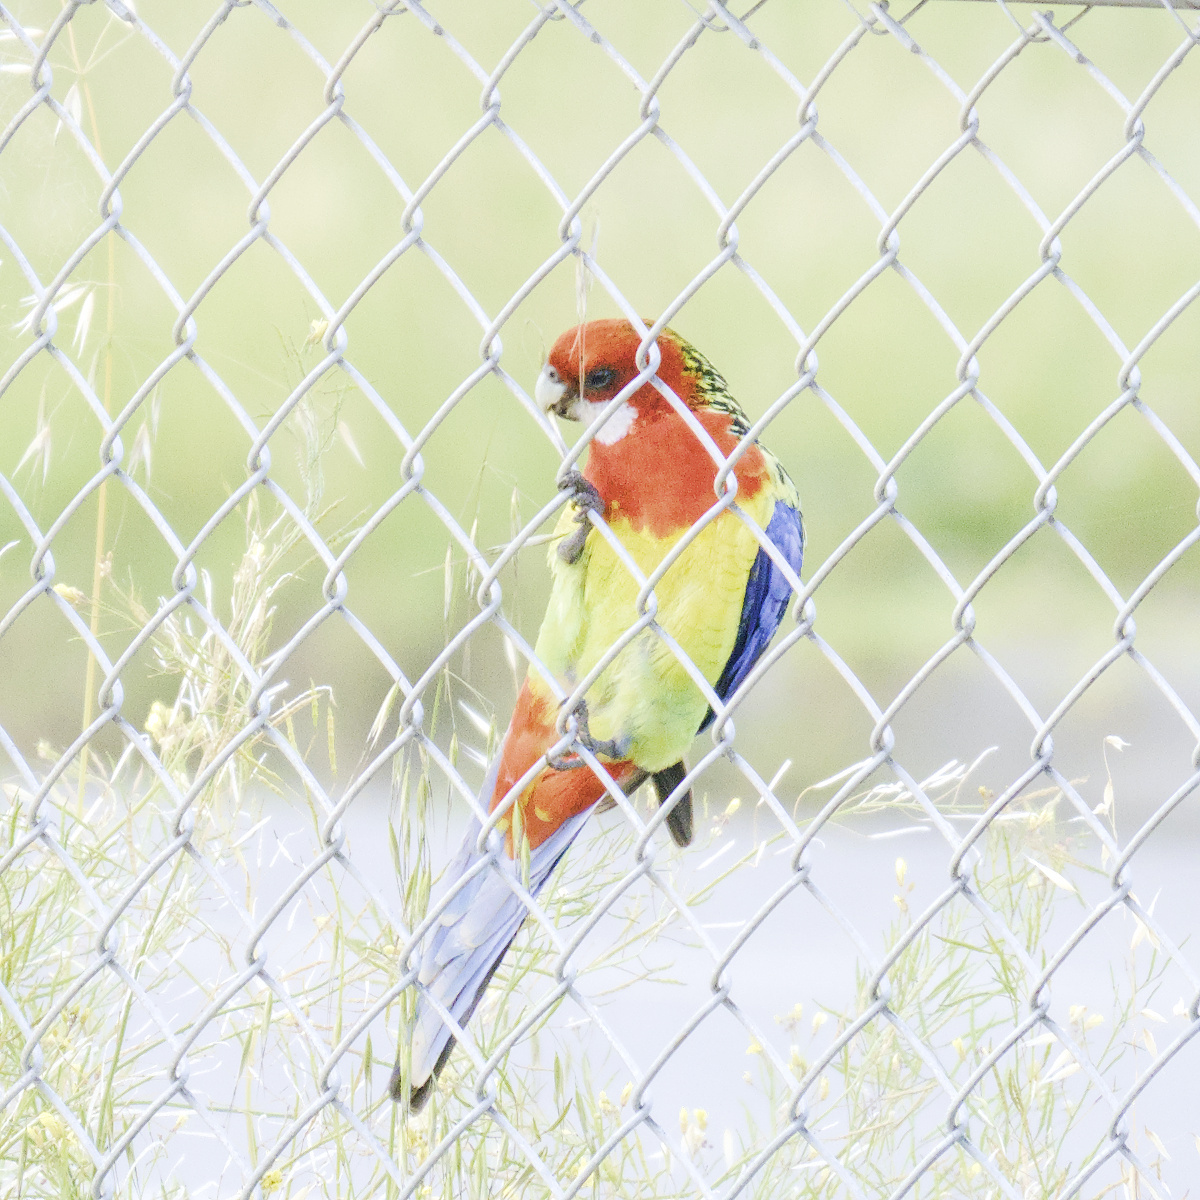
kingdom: Animalia
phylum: Chordata
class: Aves
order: Psittaciformes
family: Psittacidae
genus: Platycercus
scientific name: Platycercus eximius
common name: Eastern rosella
